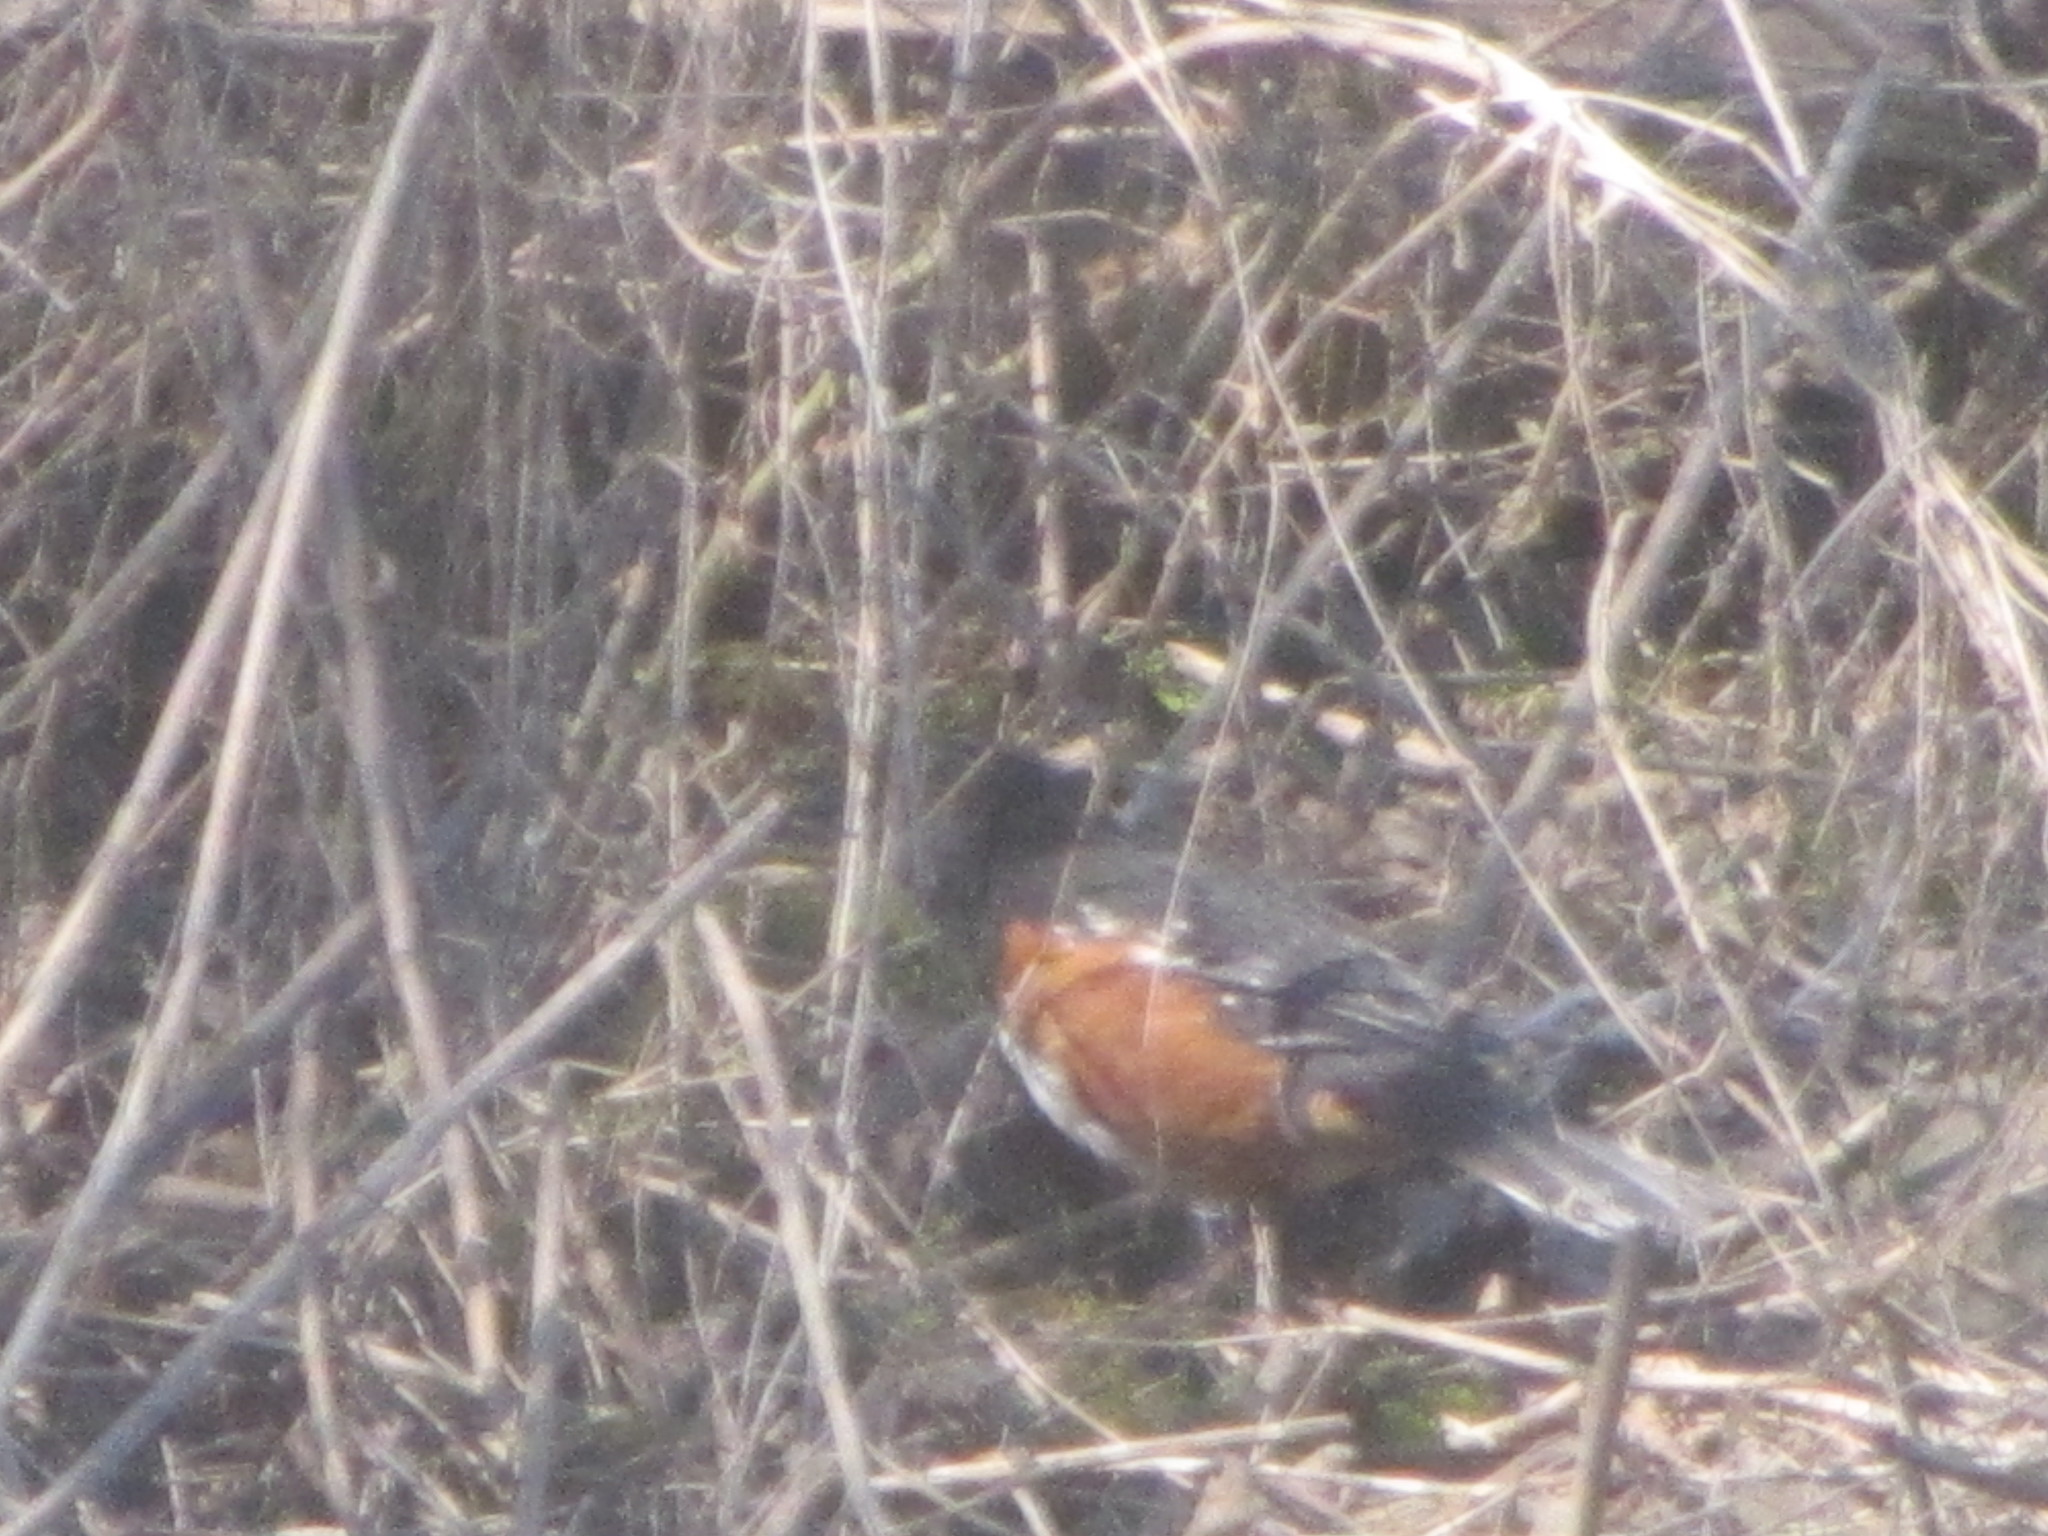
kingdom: Animalia
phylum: Chordata
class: Aves
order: Passeriformes
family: Passerellidae
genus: Pipilo
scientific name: Pipilo maculatus
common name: Spotted towhee
